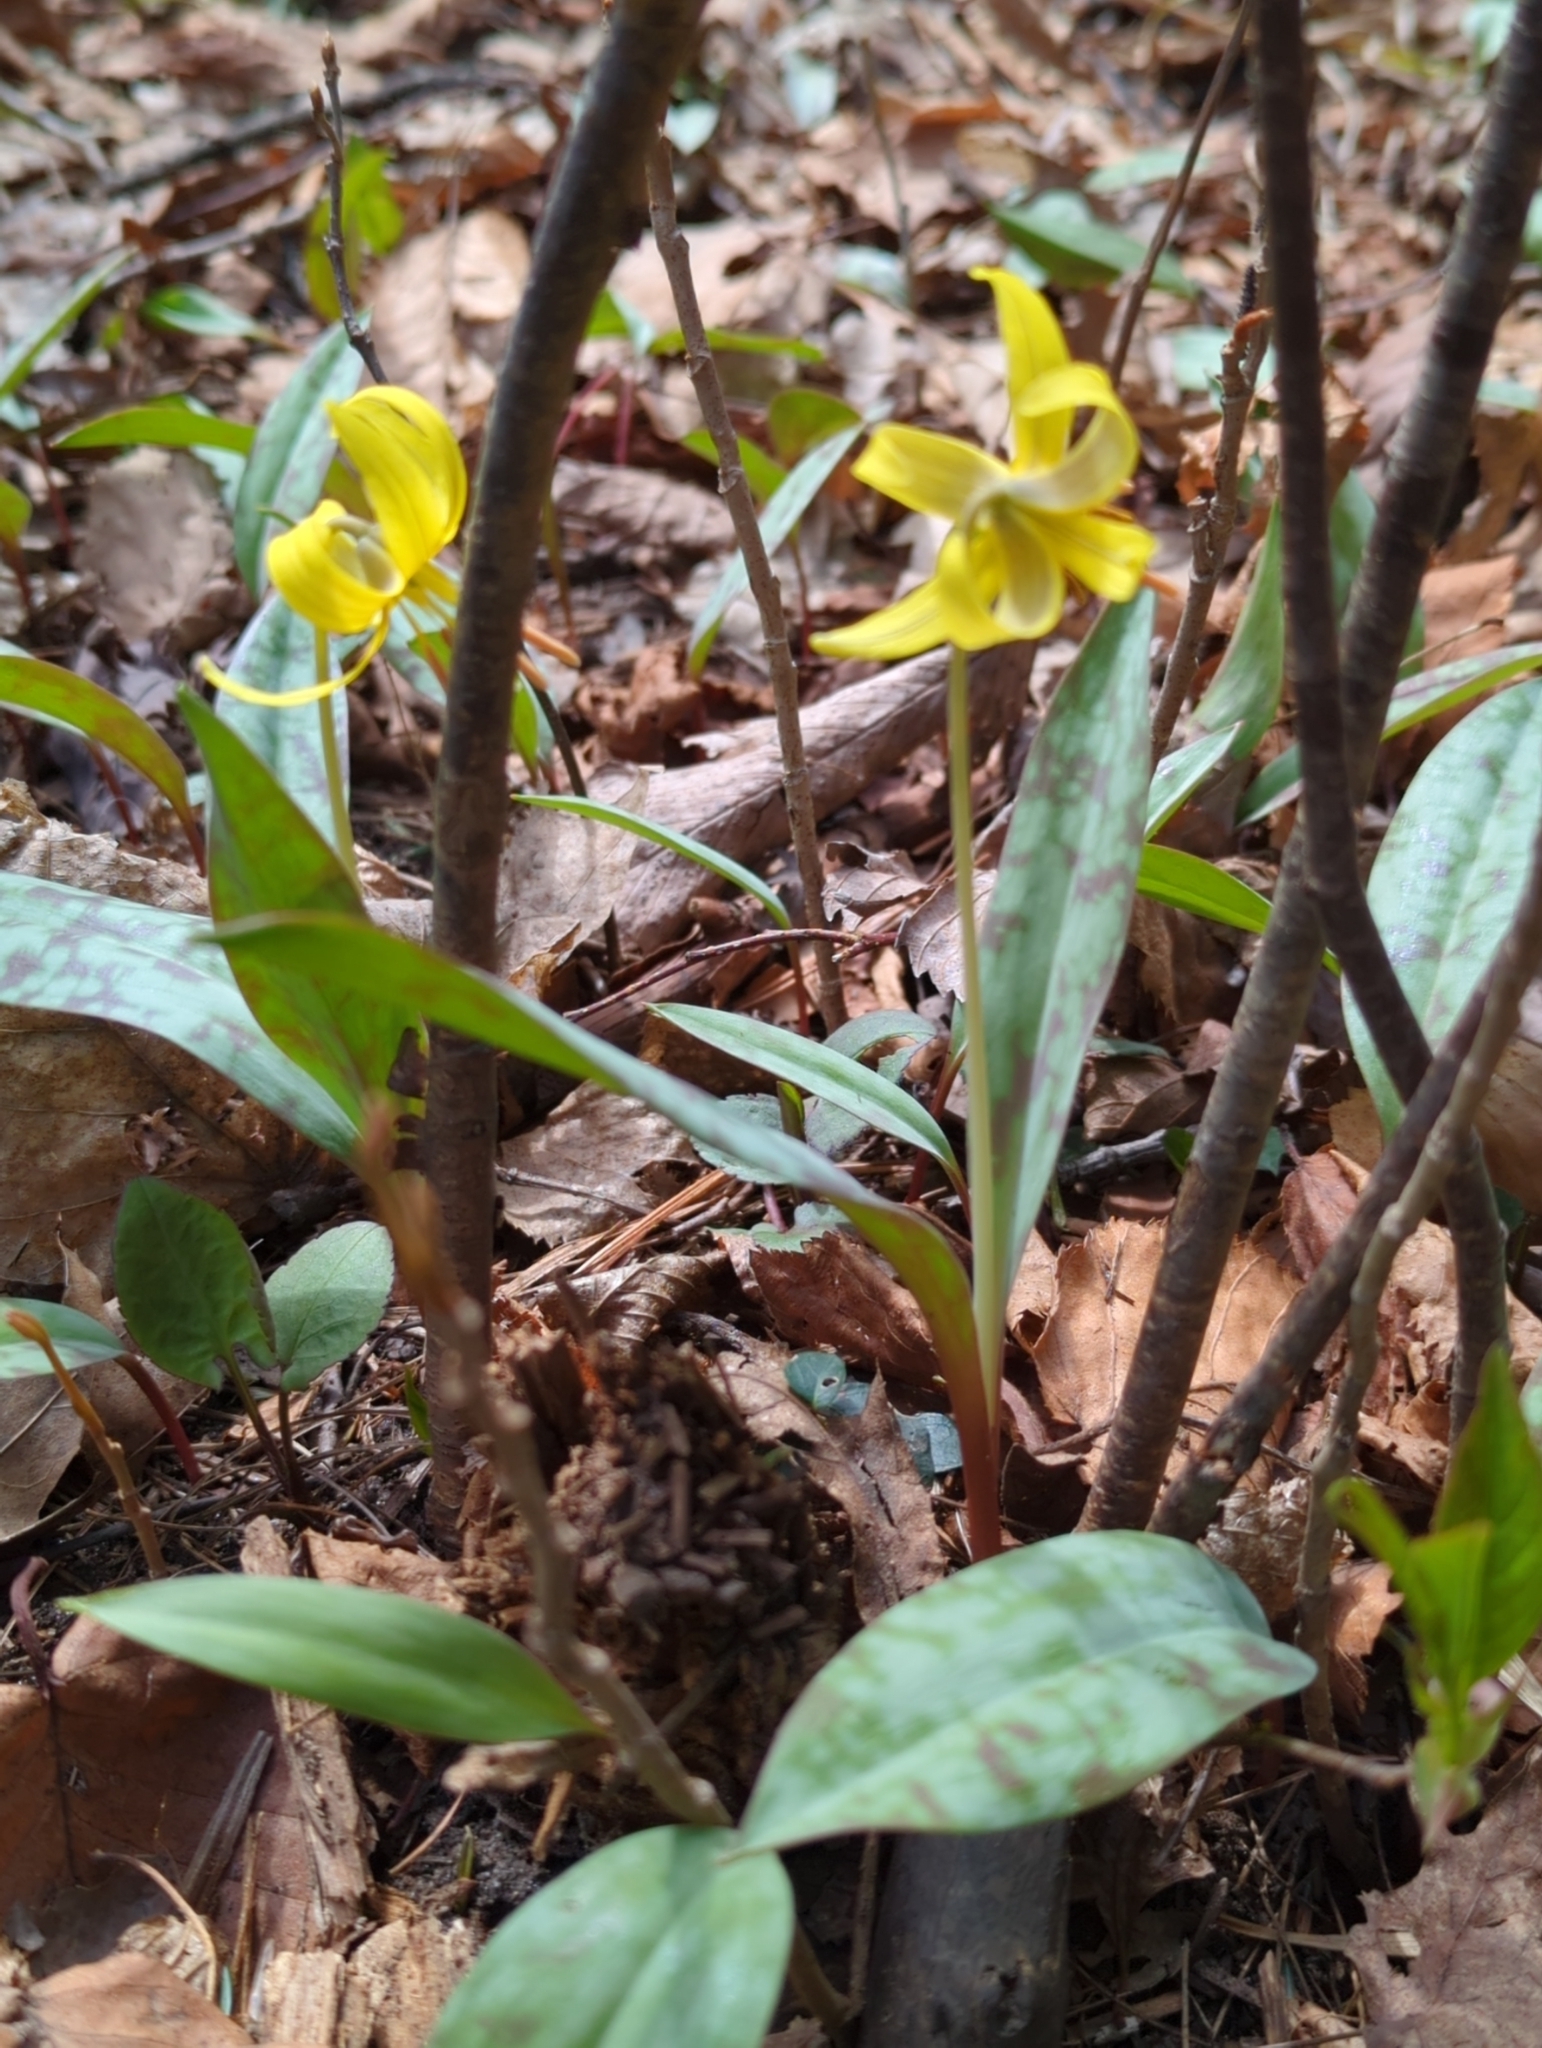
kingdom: Plantae
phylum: Tracheophyta
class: Liliopsida
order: Liliales
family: Liliaceae
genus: Erythronium
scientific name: Erythronium americanum
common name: Yellow adder's-tongue
